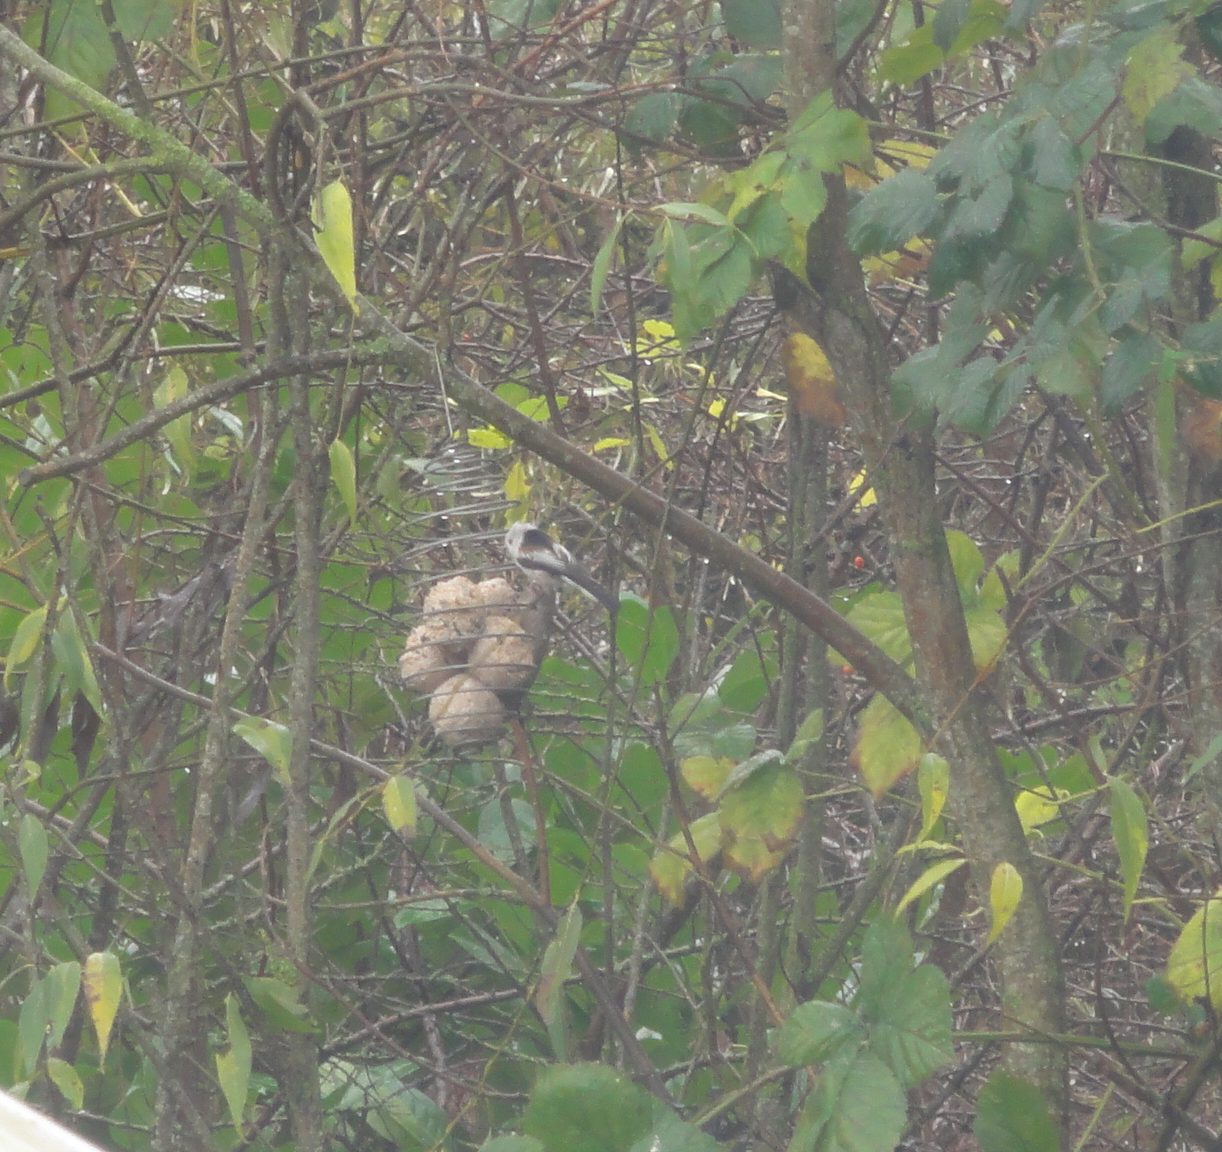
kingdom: Animalia
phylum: Chordata
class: Aves
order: Passeriformes
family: Aegithalidae
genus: Aegithalos
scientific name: Aegithalos caudatus
